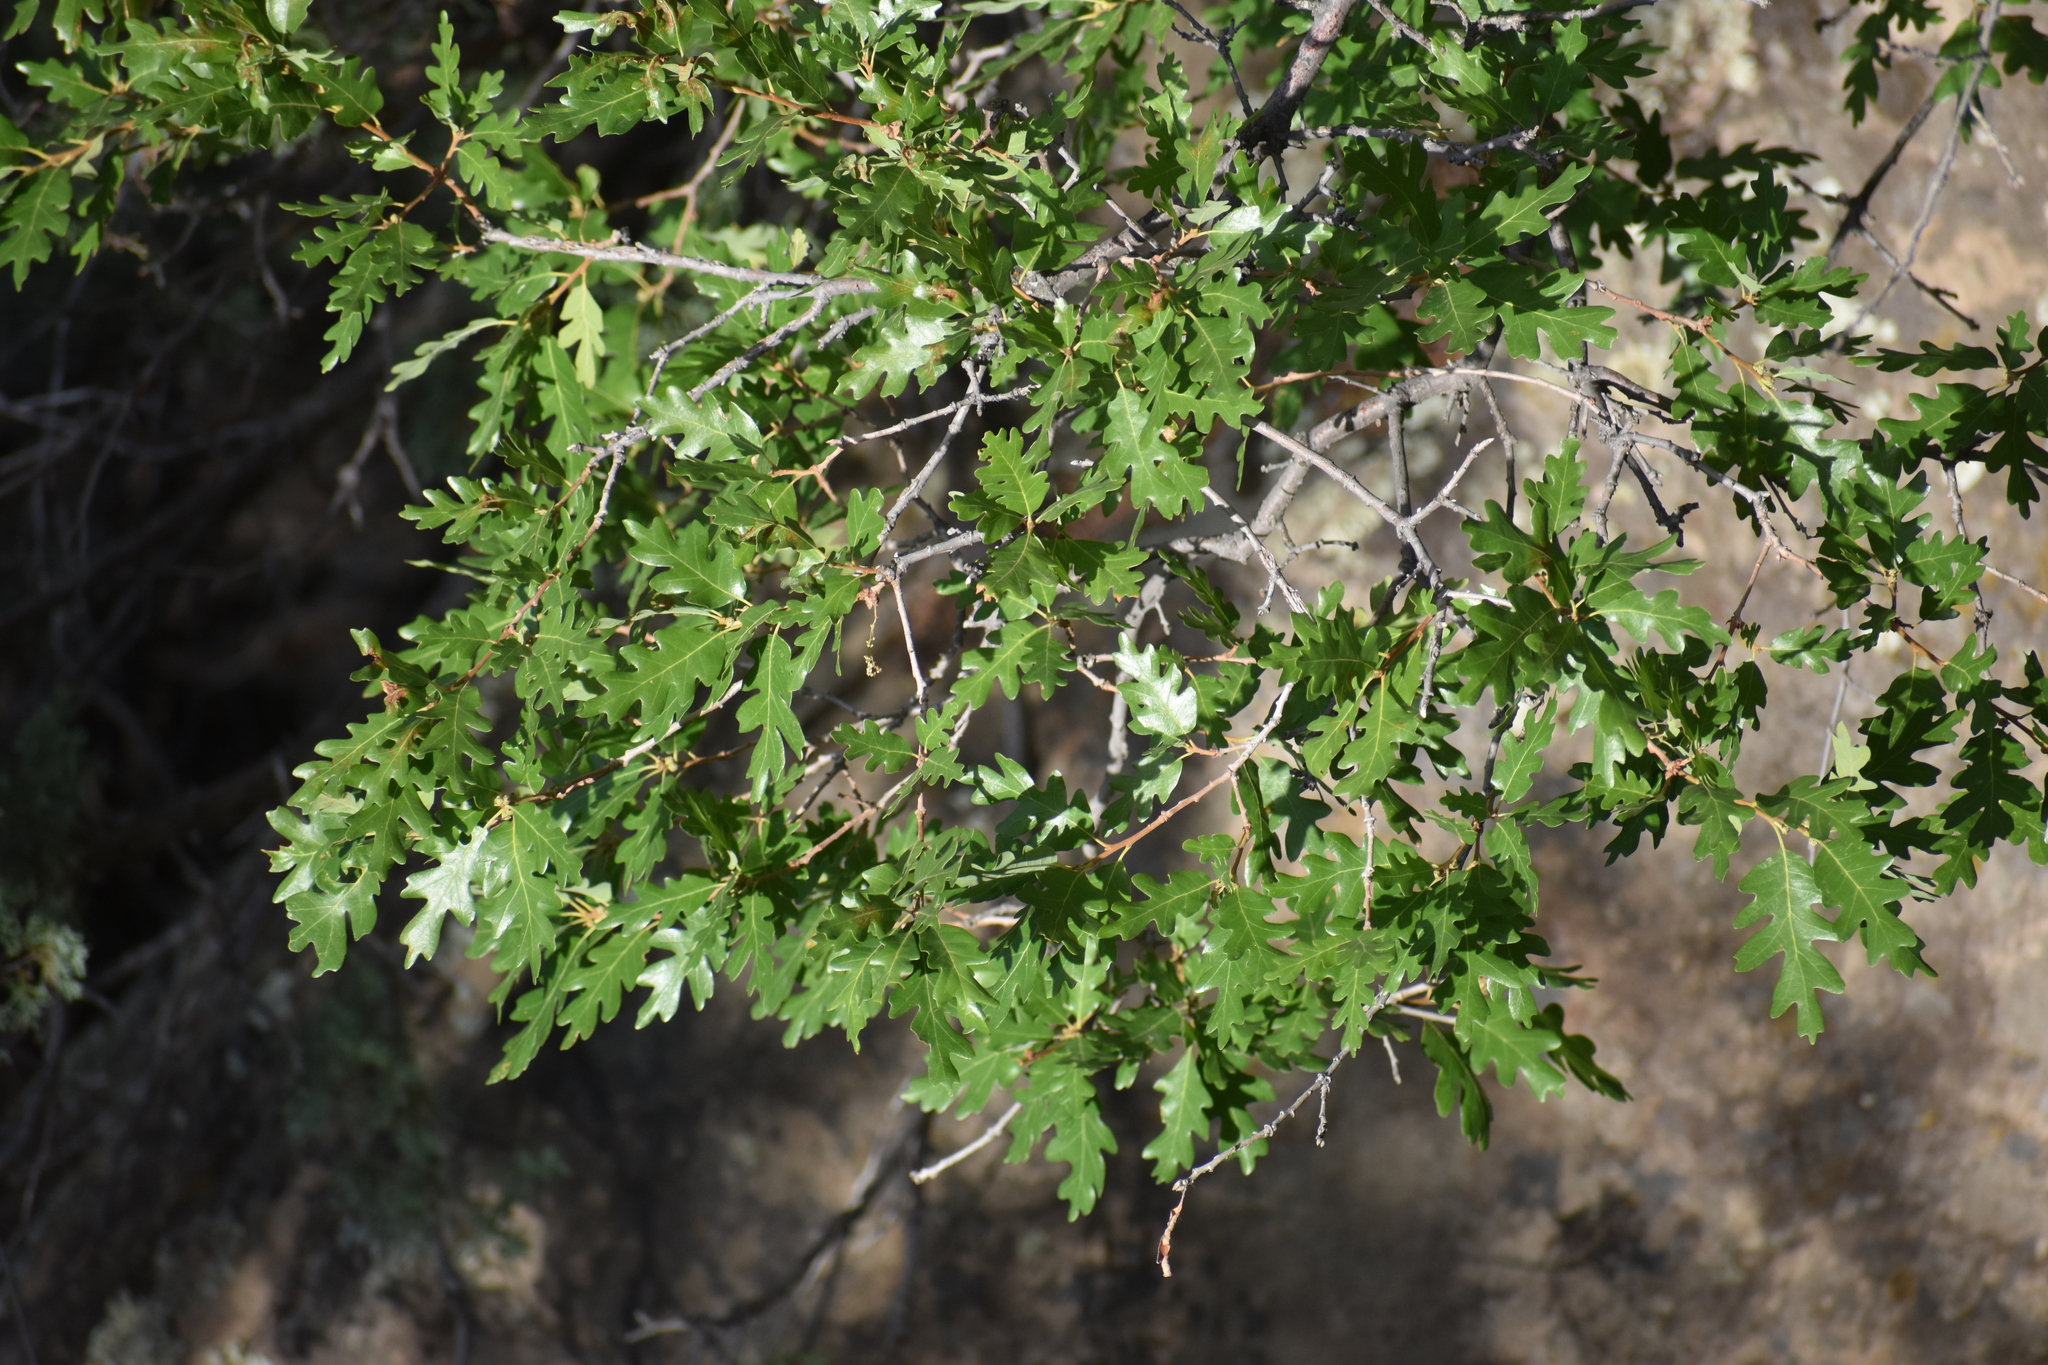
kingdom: Plantae
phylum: Tracheophyta
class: Magnoliopsida
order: Fagales
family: Fagaceae
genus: Quercus
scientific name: Quercus gambelii
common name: Gambel oak
